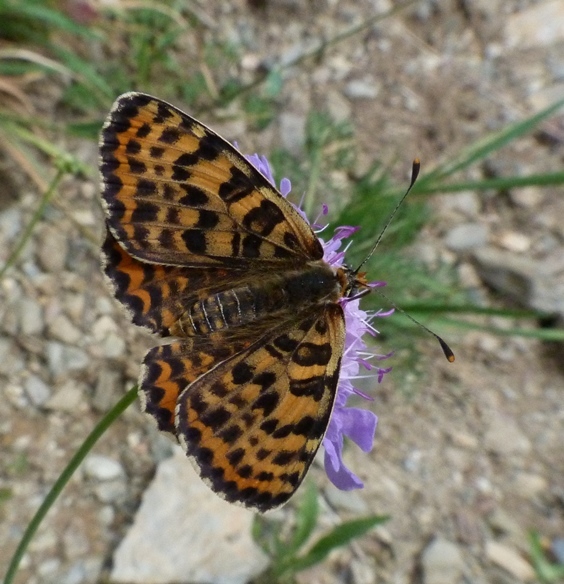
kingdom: Animalia
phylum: Arthropoda
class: Insecta
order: Lepidoptera
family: Nymphalidae
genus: Melitaea
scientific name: Melitaea didyma
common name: Spotted fritillary
